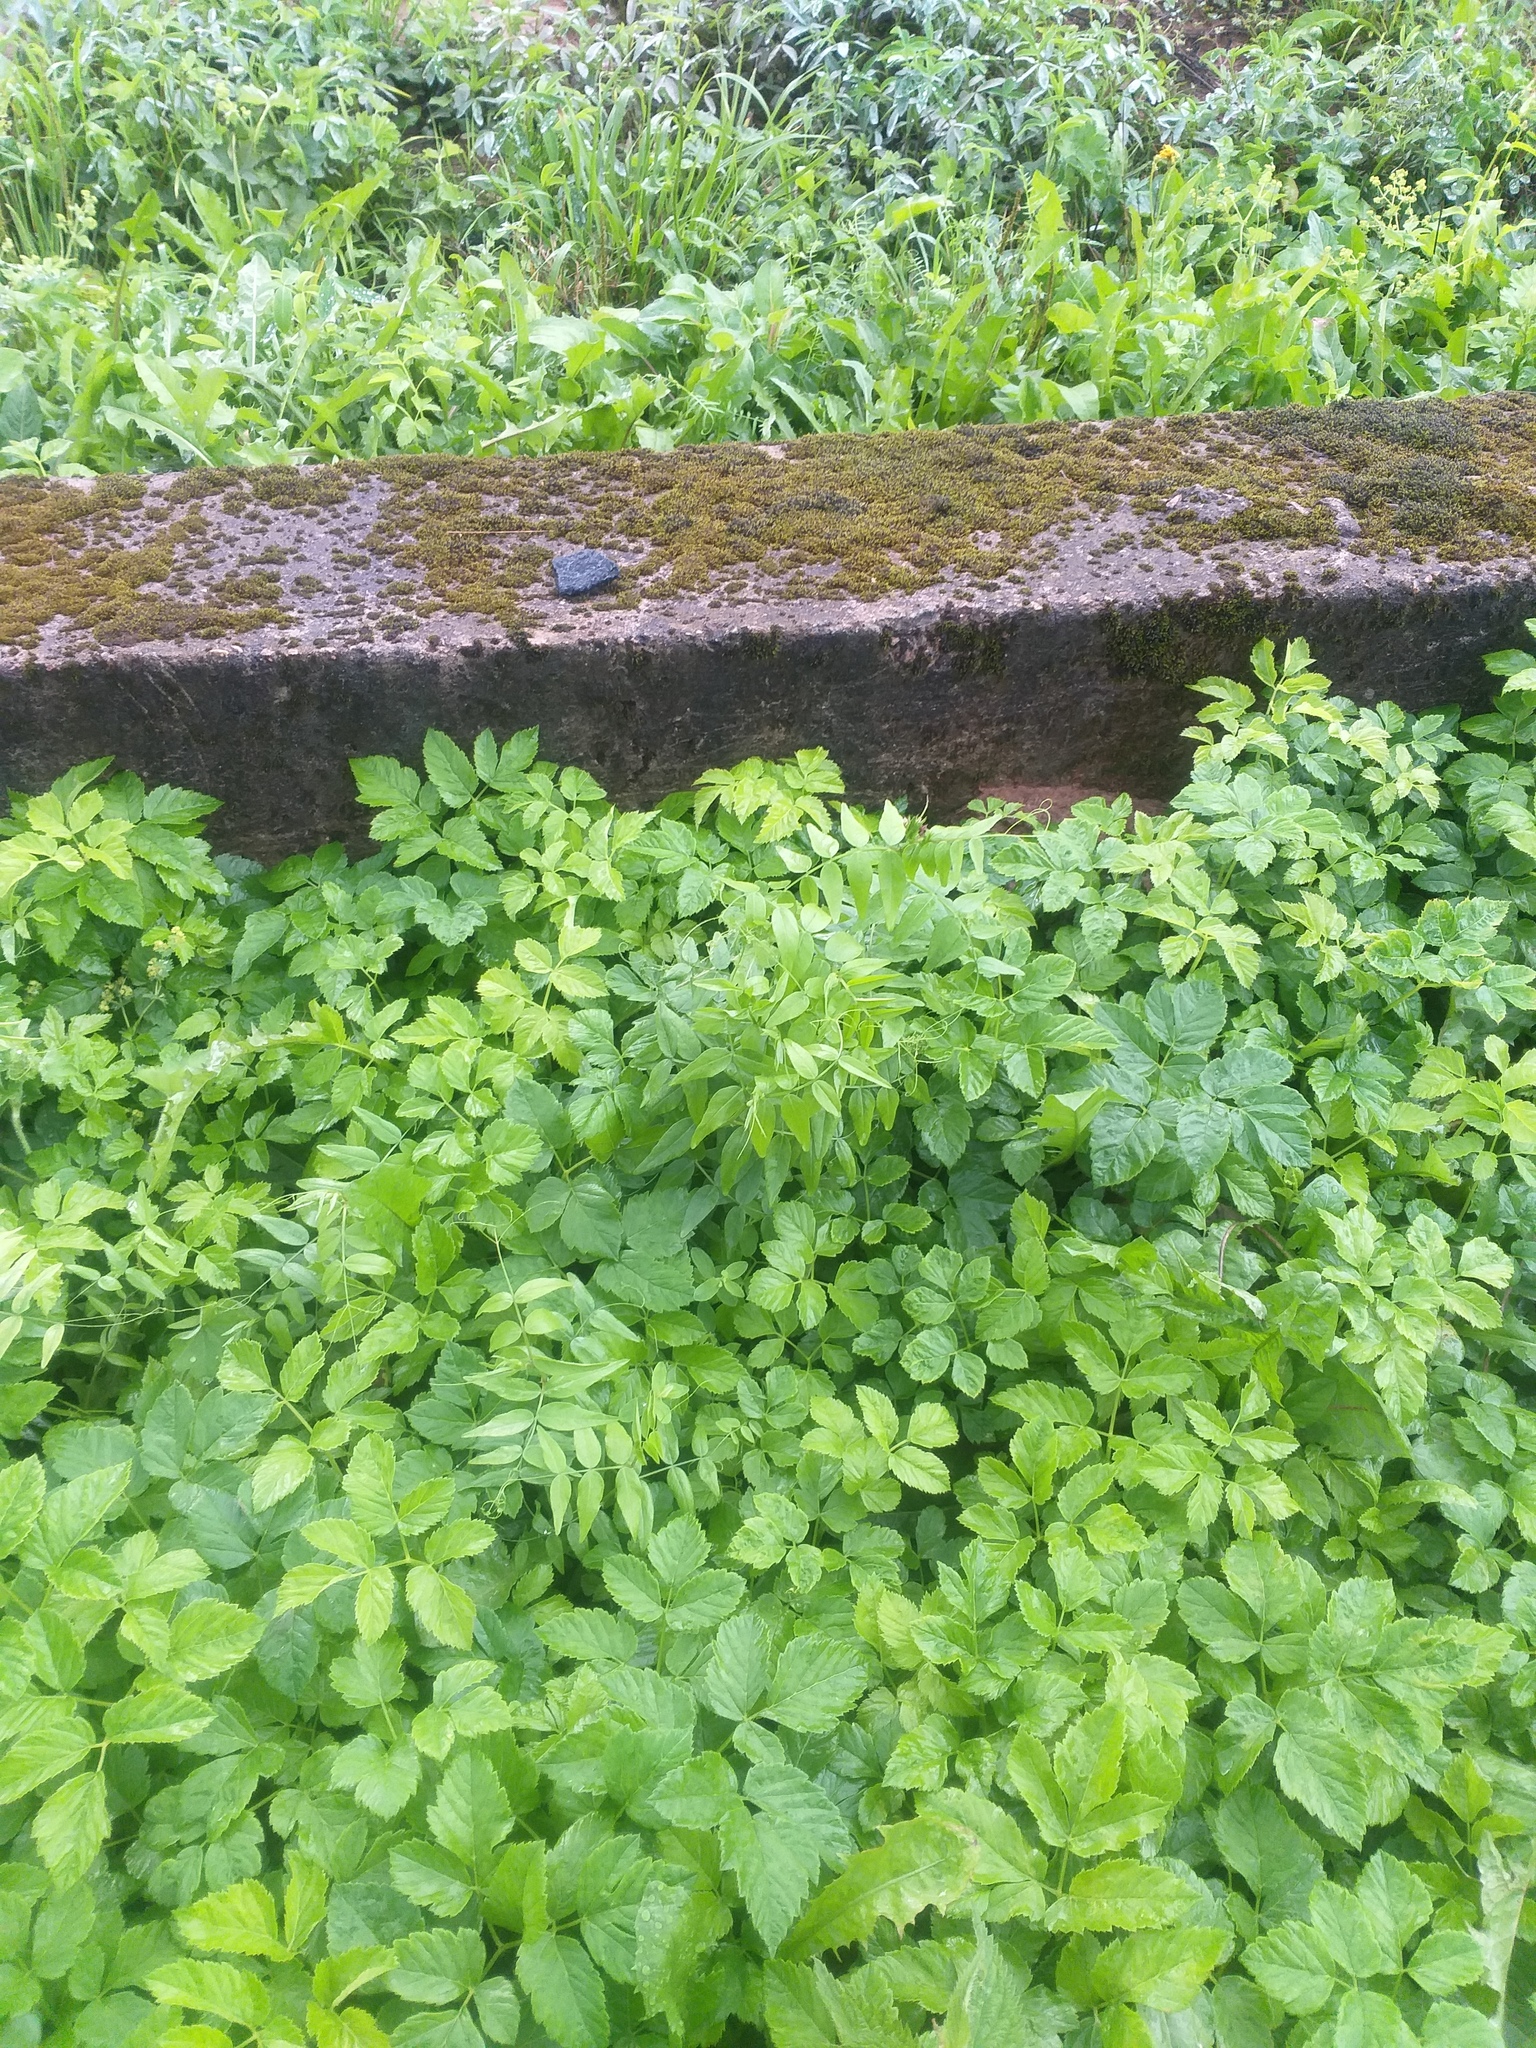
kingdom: Plantae
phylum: Tracheophyta
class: Magnoliopsida
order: Fabales
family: Fabaceae
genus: Vicia
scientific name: Vicia sepium
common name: Bush vetch
